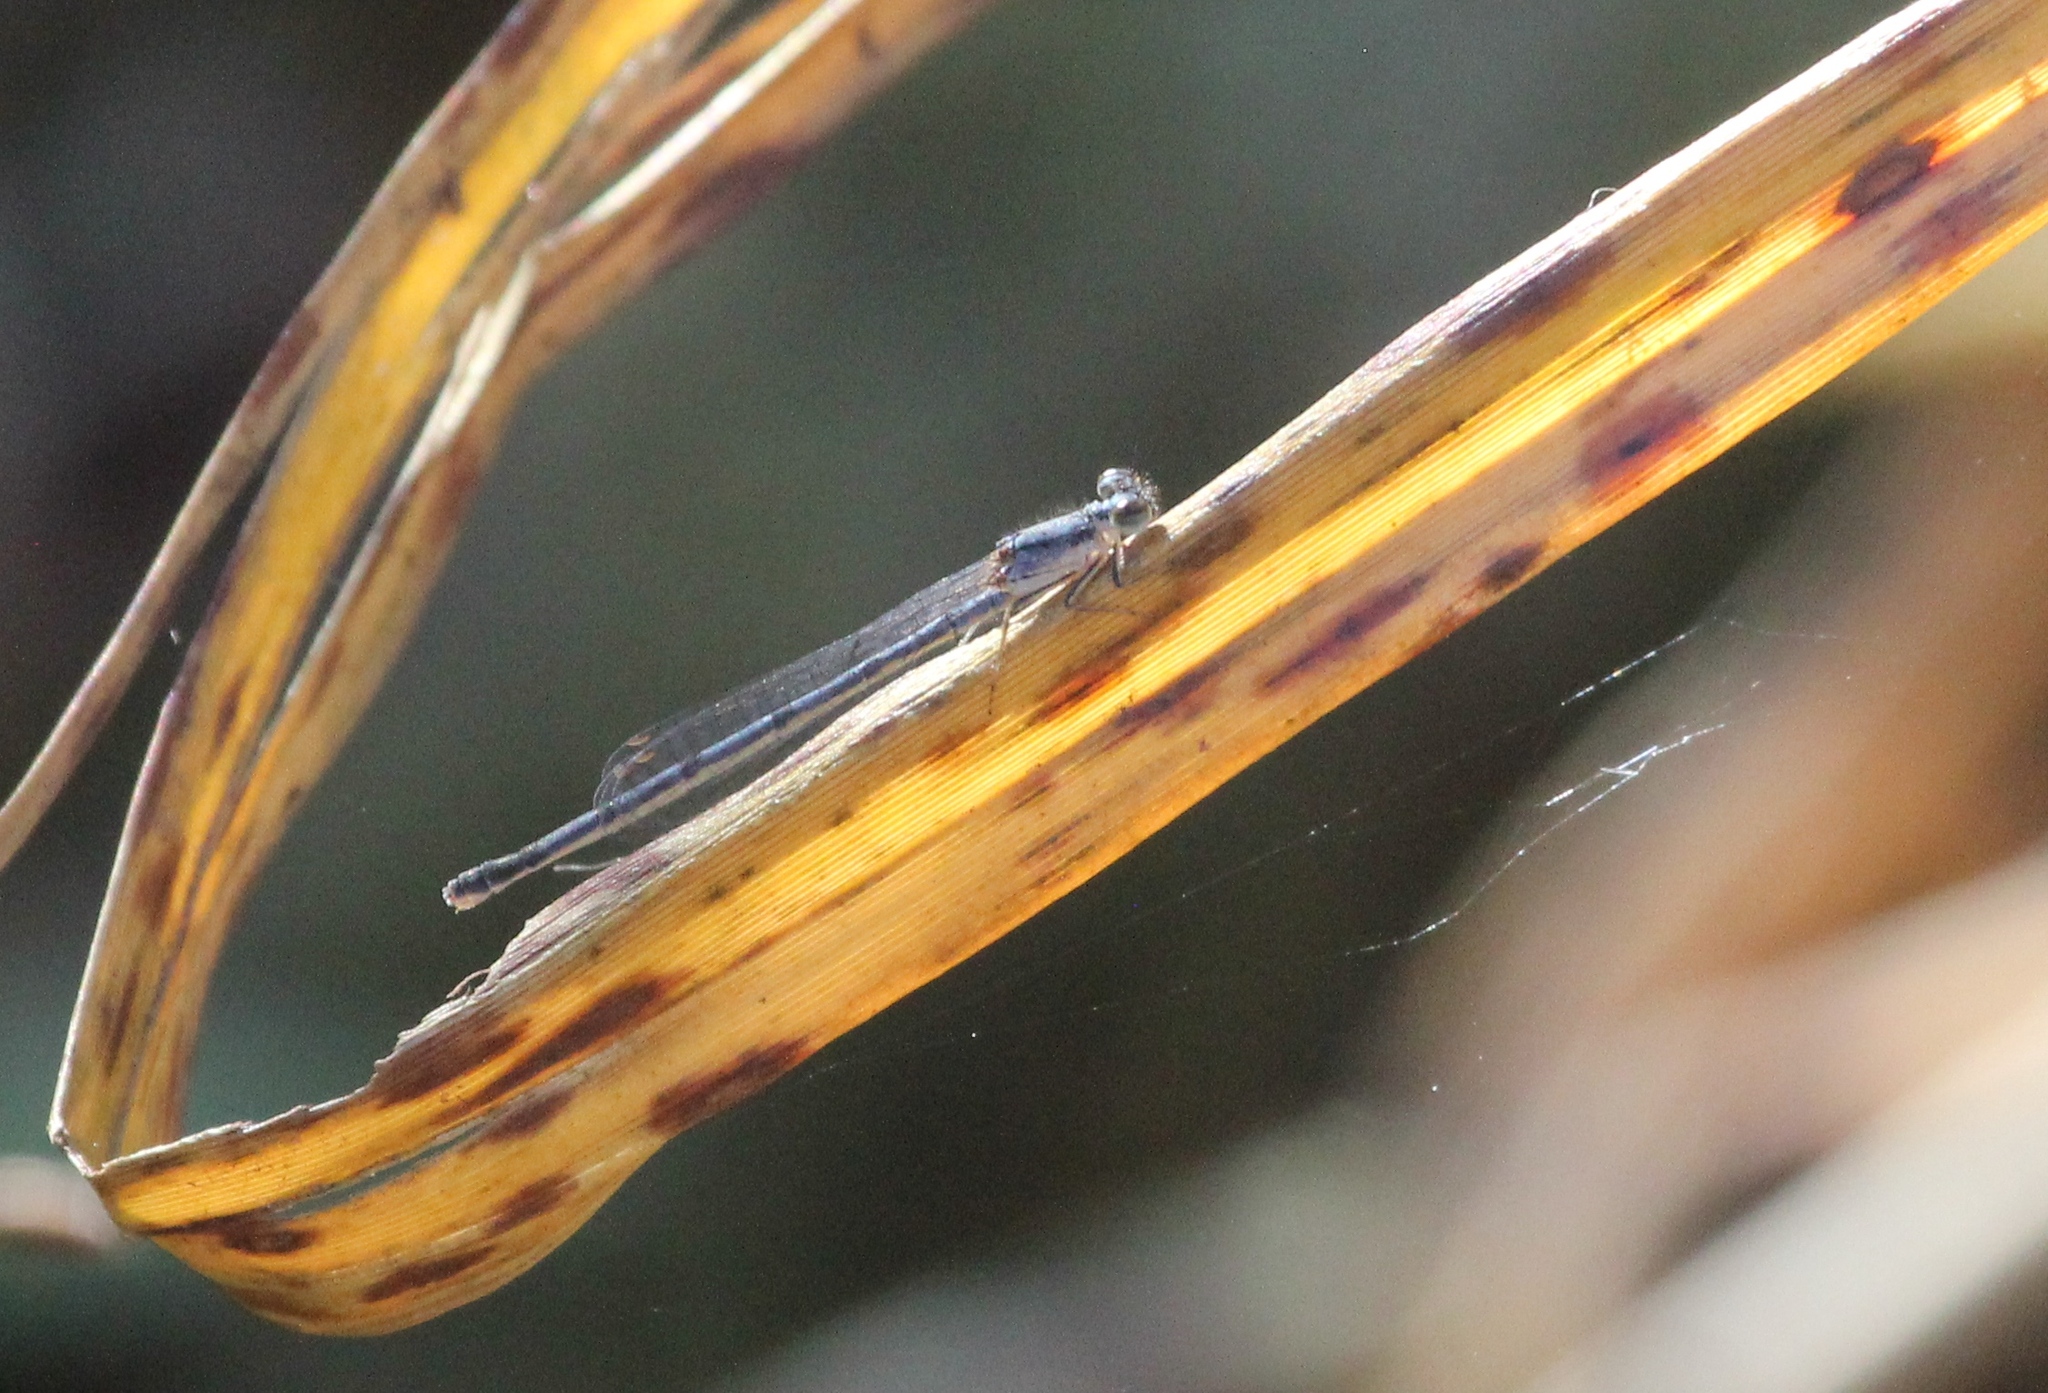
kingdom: Animalia
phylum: Arthropoda
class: Insecta
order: Odonata
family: Coenagrionidae
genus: Ischnura
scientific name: Ischnura posita
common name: Fragile forktail
